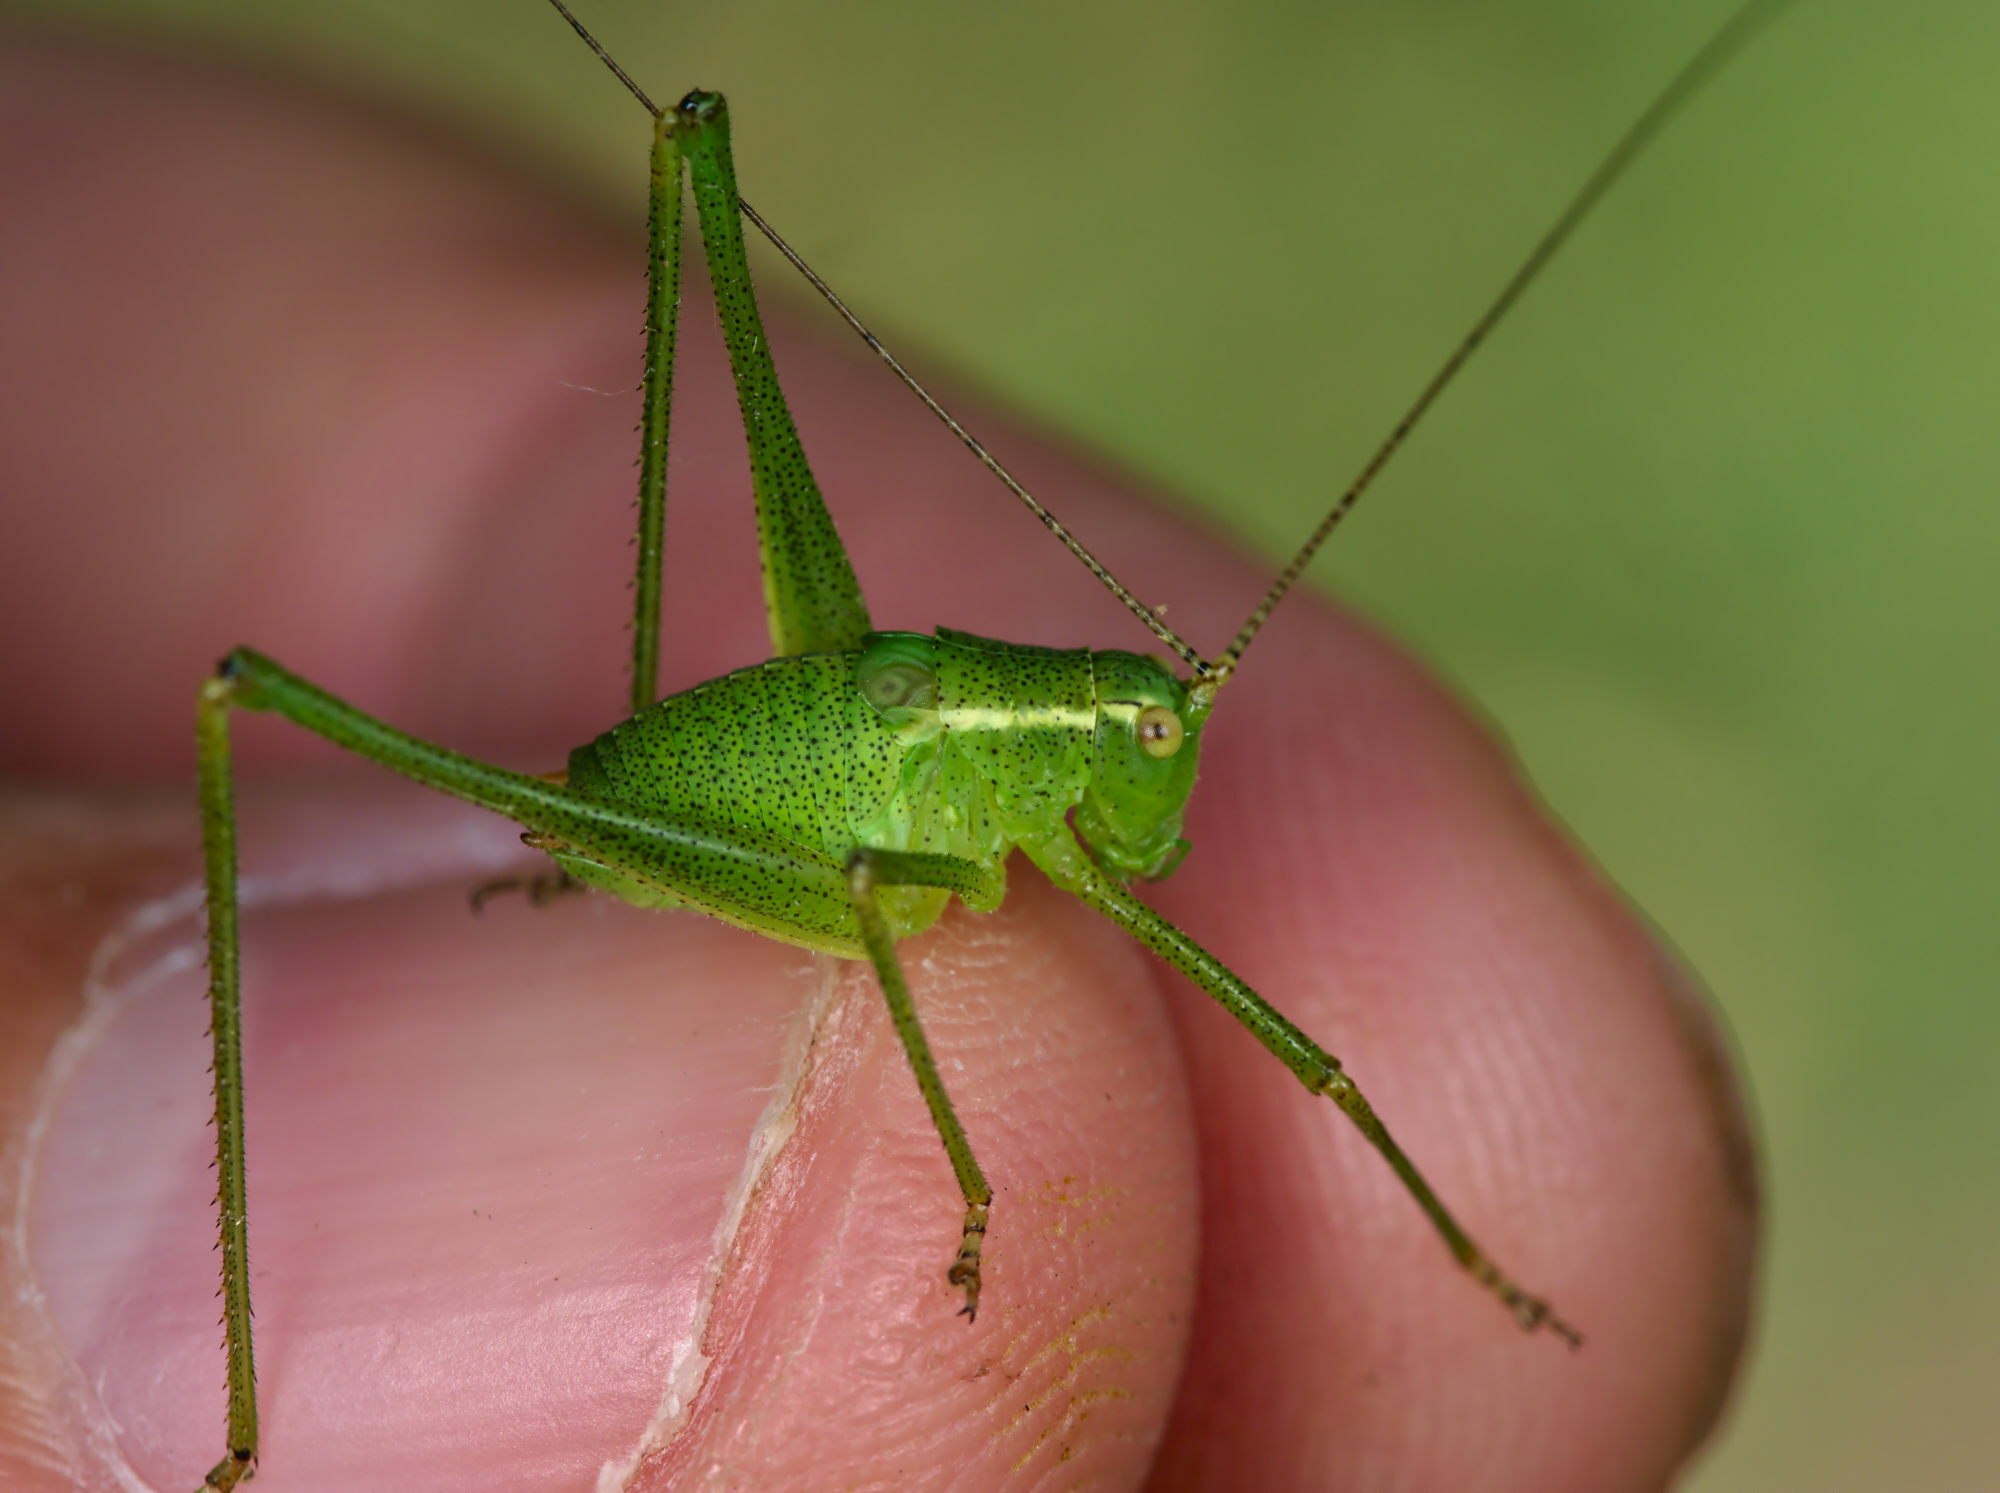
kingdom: Animalia
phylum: Arthropoda
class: Insecta
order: Orthoptera
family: Tettigoniidae
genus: Leptophyes
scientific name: Leptophyes punctatissima
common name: Speckled bush-cricket
